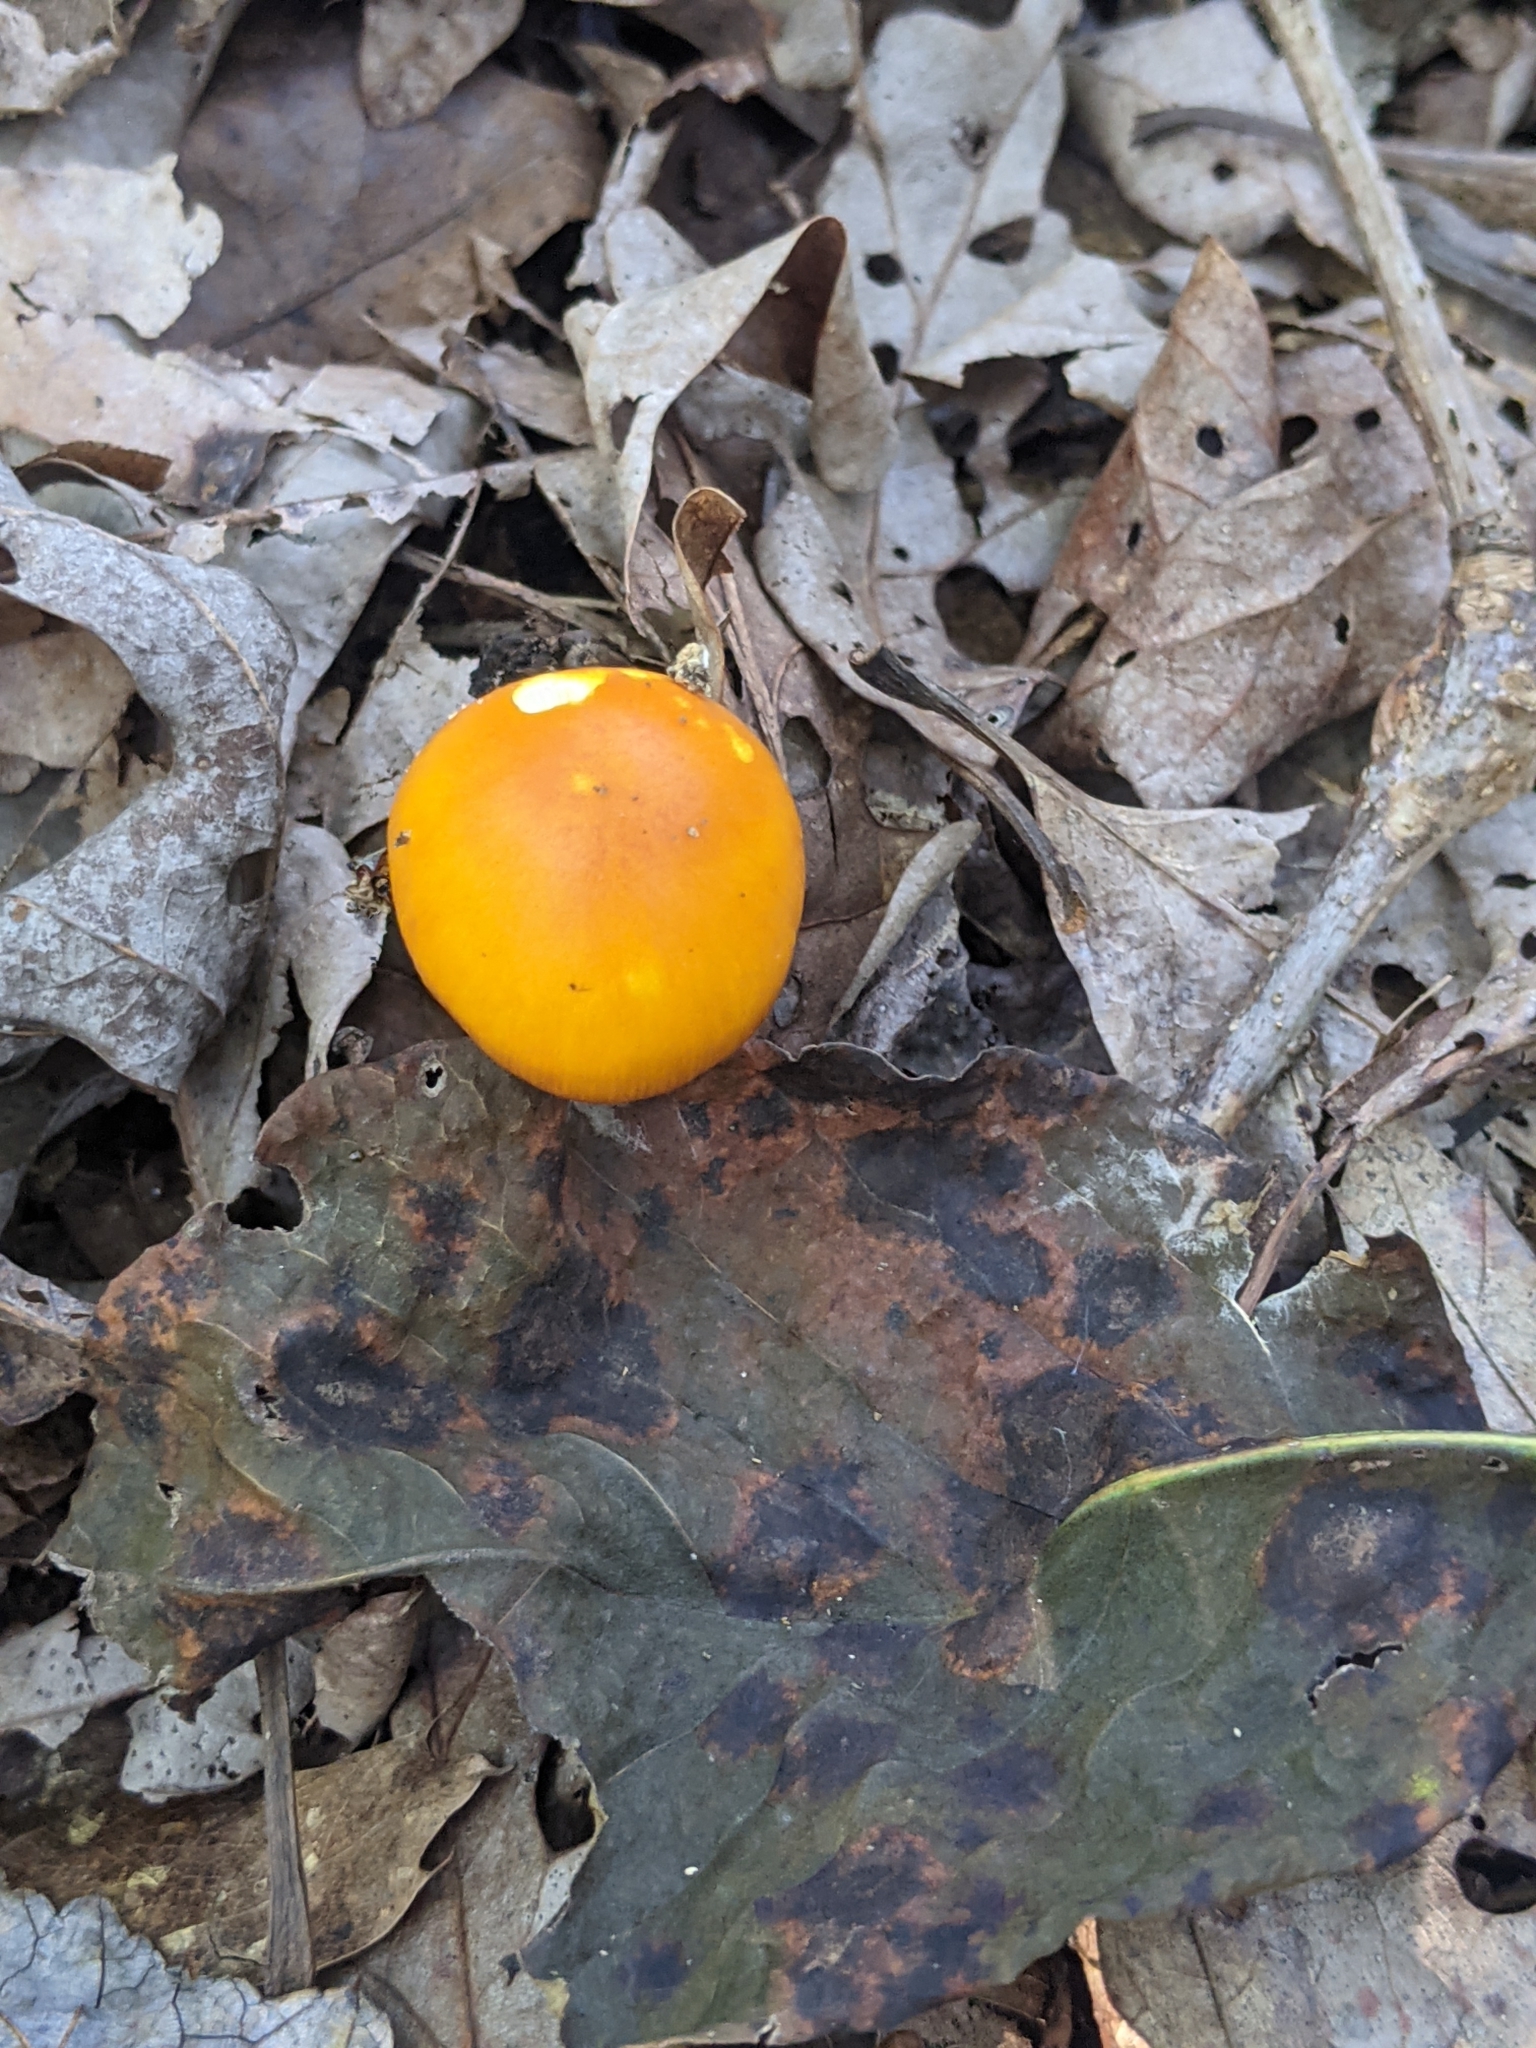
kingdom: Fungi
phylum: Basidiomycota
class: Agaricomycetes
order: Agaricales
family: Amanitaceae
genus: Amanita
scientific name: Amanita flavoconia
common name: Yellow patches
